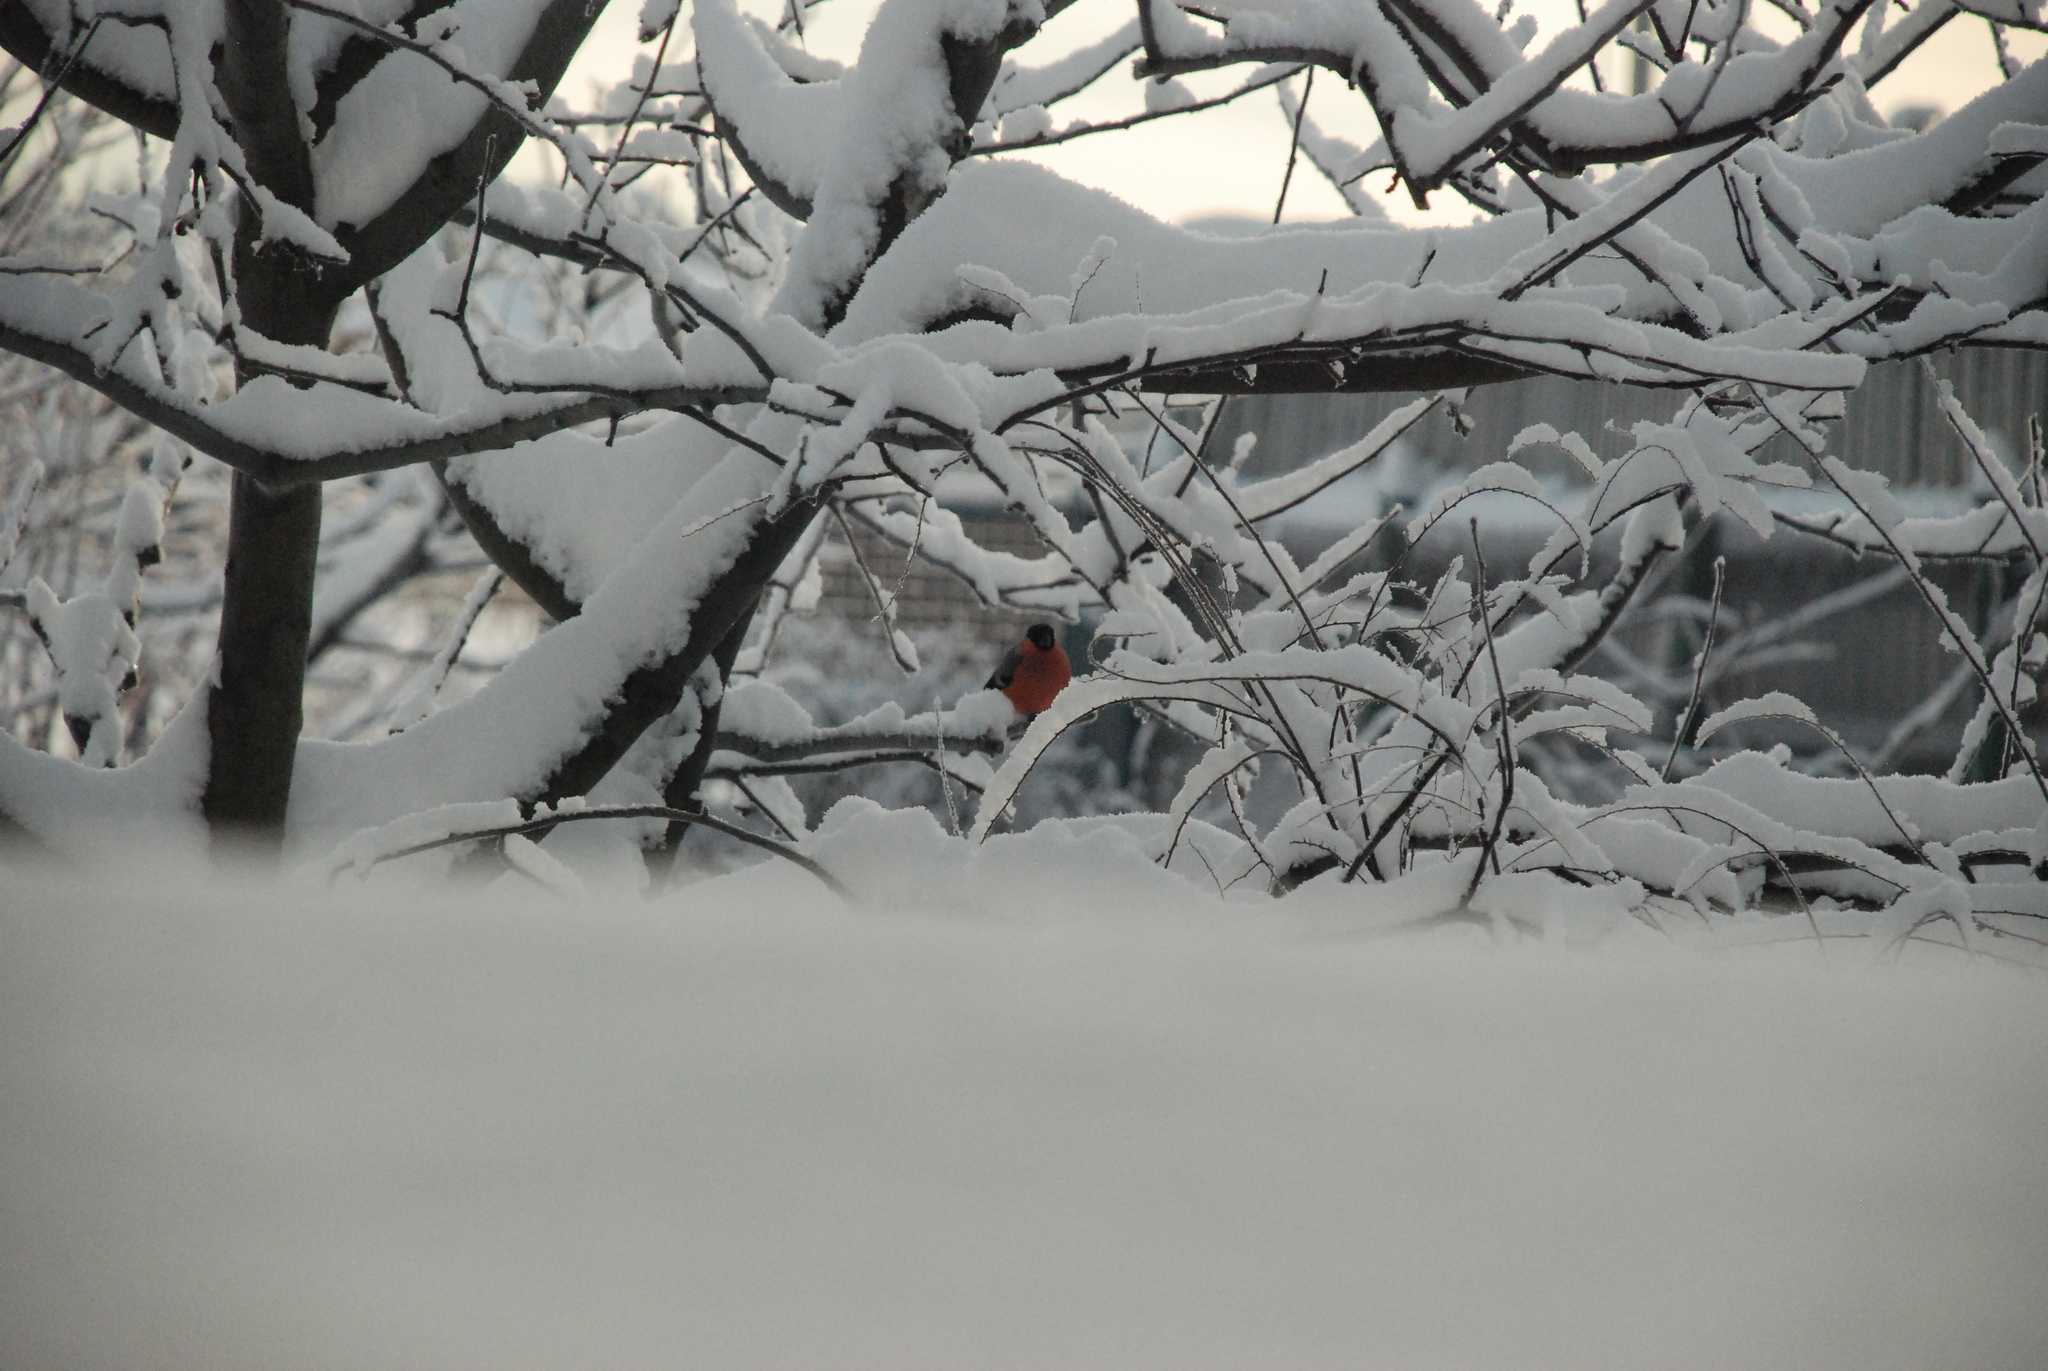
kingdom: Animalia
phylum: Chordata
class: Aves
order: Passeriformes
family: Fringillidae
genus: Pyrrhula
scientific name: Pyrrhula pyrrhula
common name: Eurasian bullfinch
